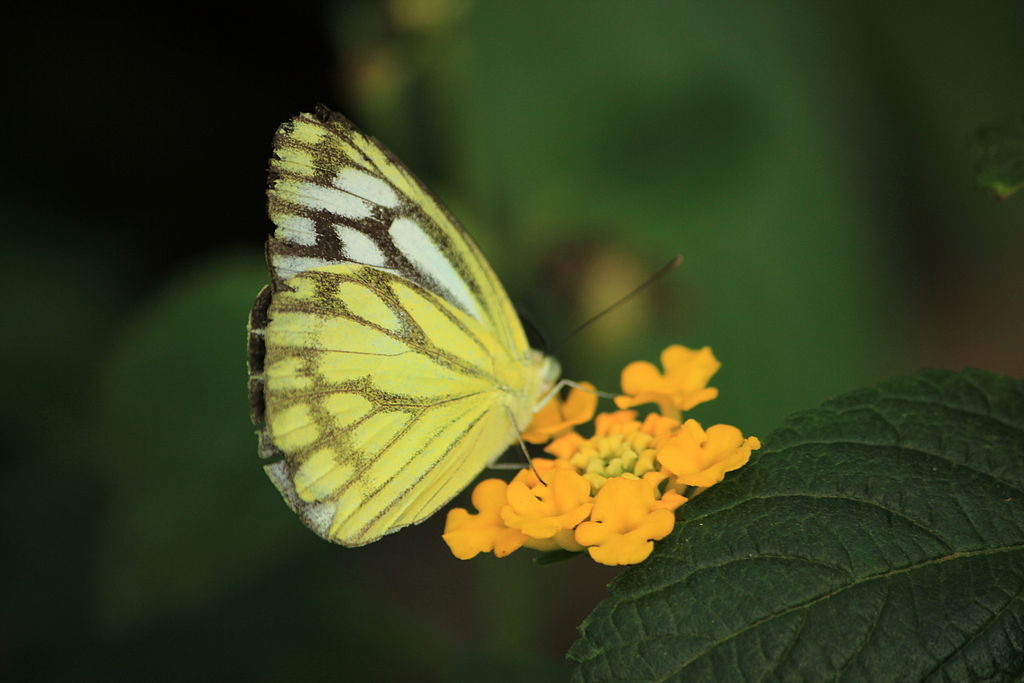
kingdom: Animalia
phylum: Arthropoda
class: Insecta
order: Lepidoptera
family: Pieridae
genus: Cepora
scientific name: Cepora nerissa
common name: Common gull
